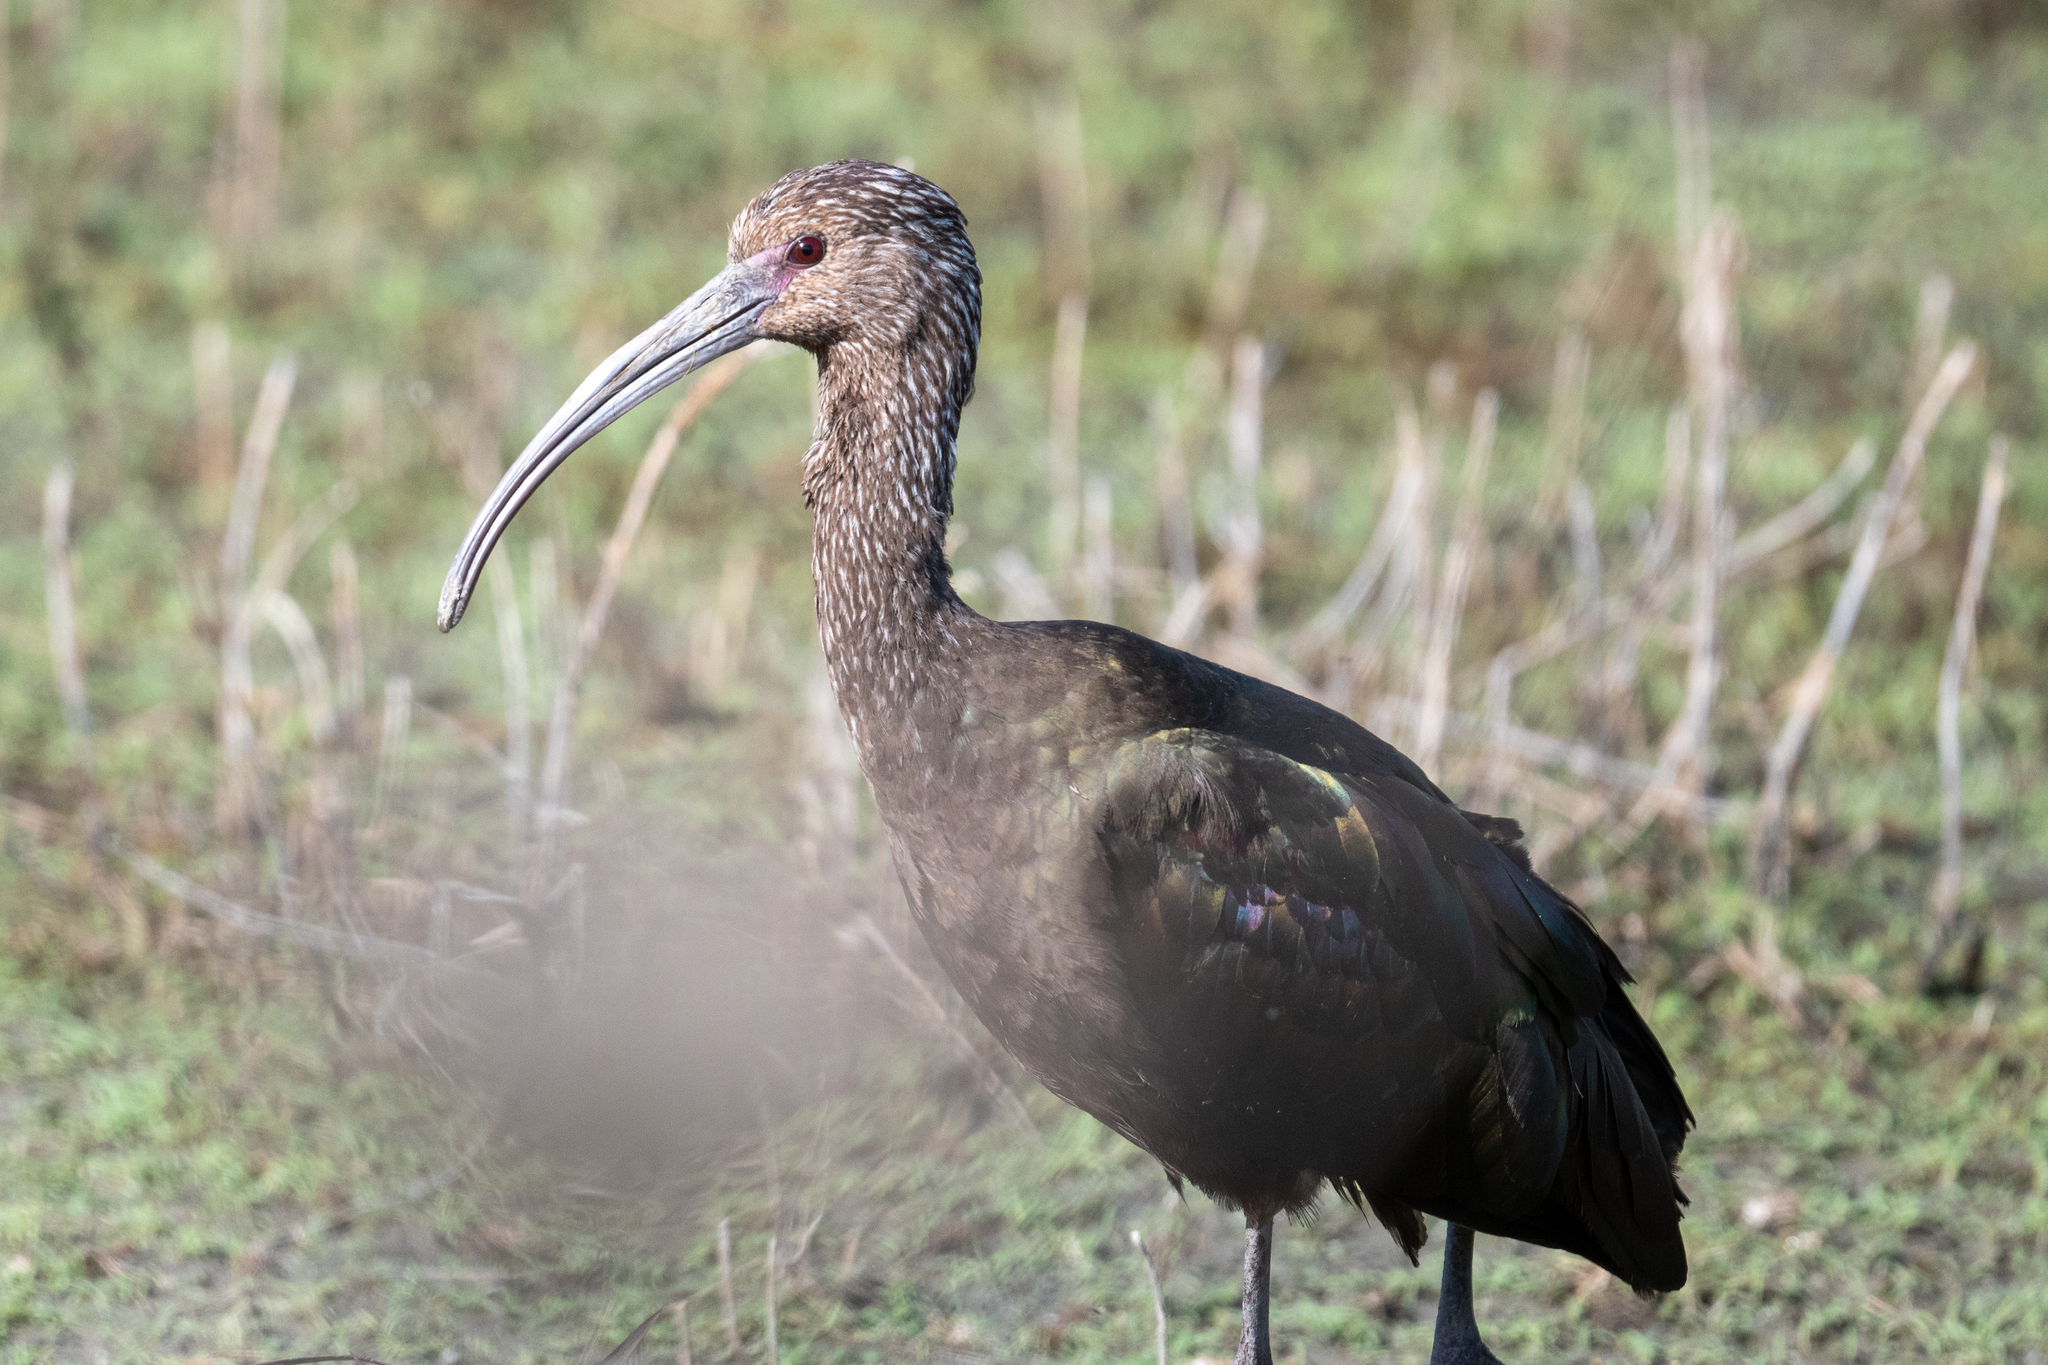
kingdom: Animalia
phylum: Chordata
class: Aves
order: Pelecaniformes
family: Threskiornithidae
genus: Plegadis
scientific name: Plegadis chihi
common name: White-faced ibis
